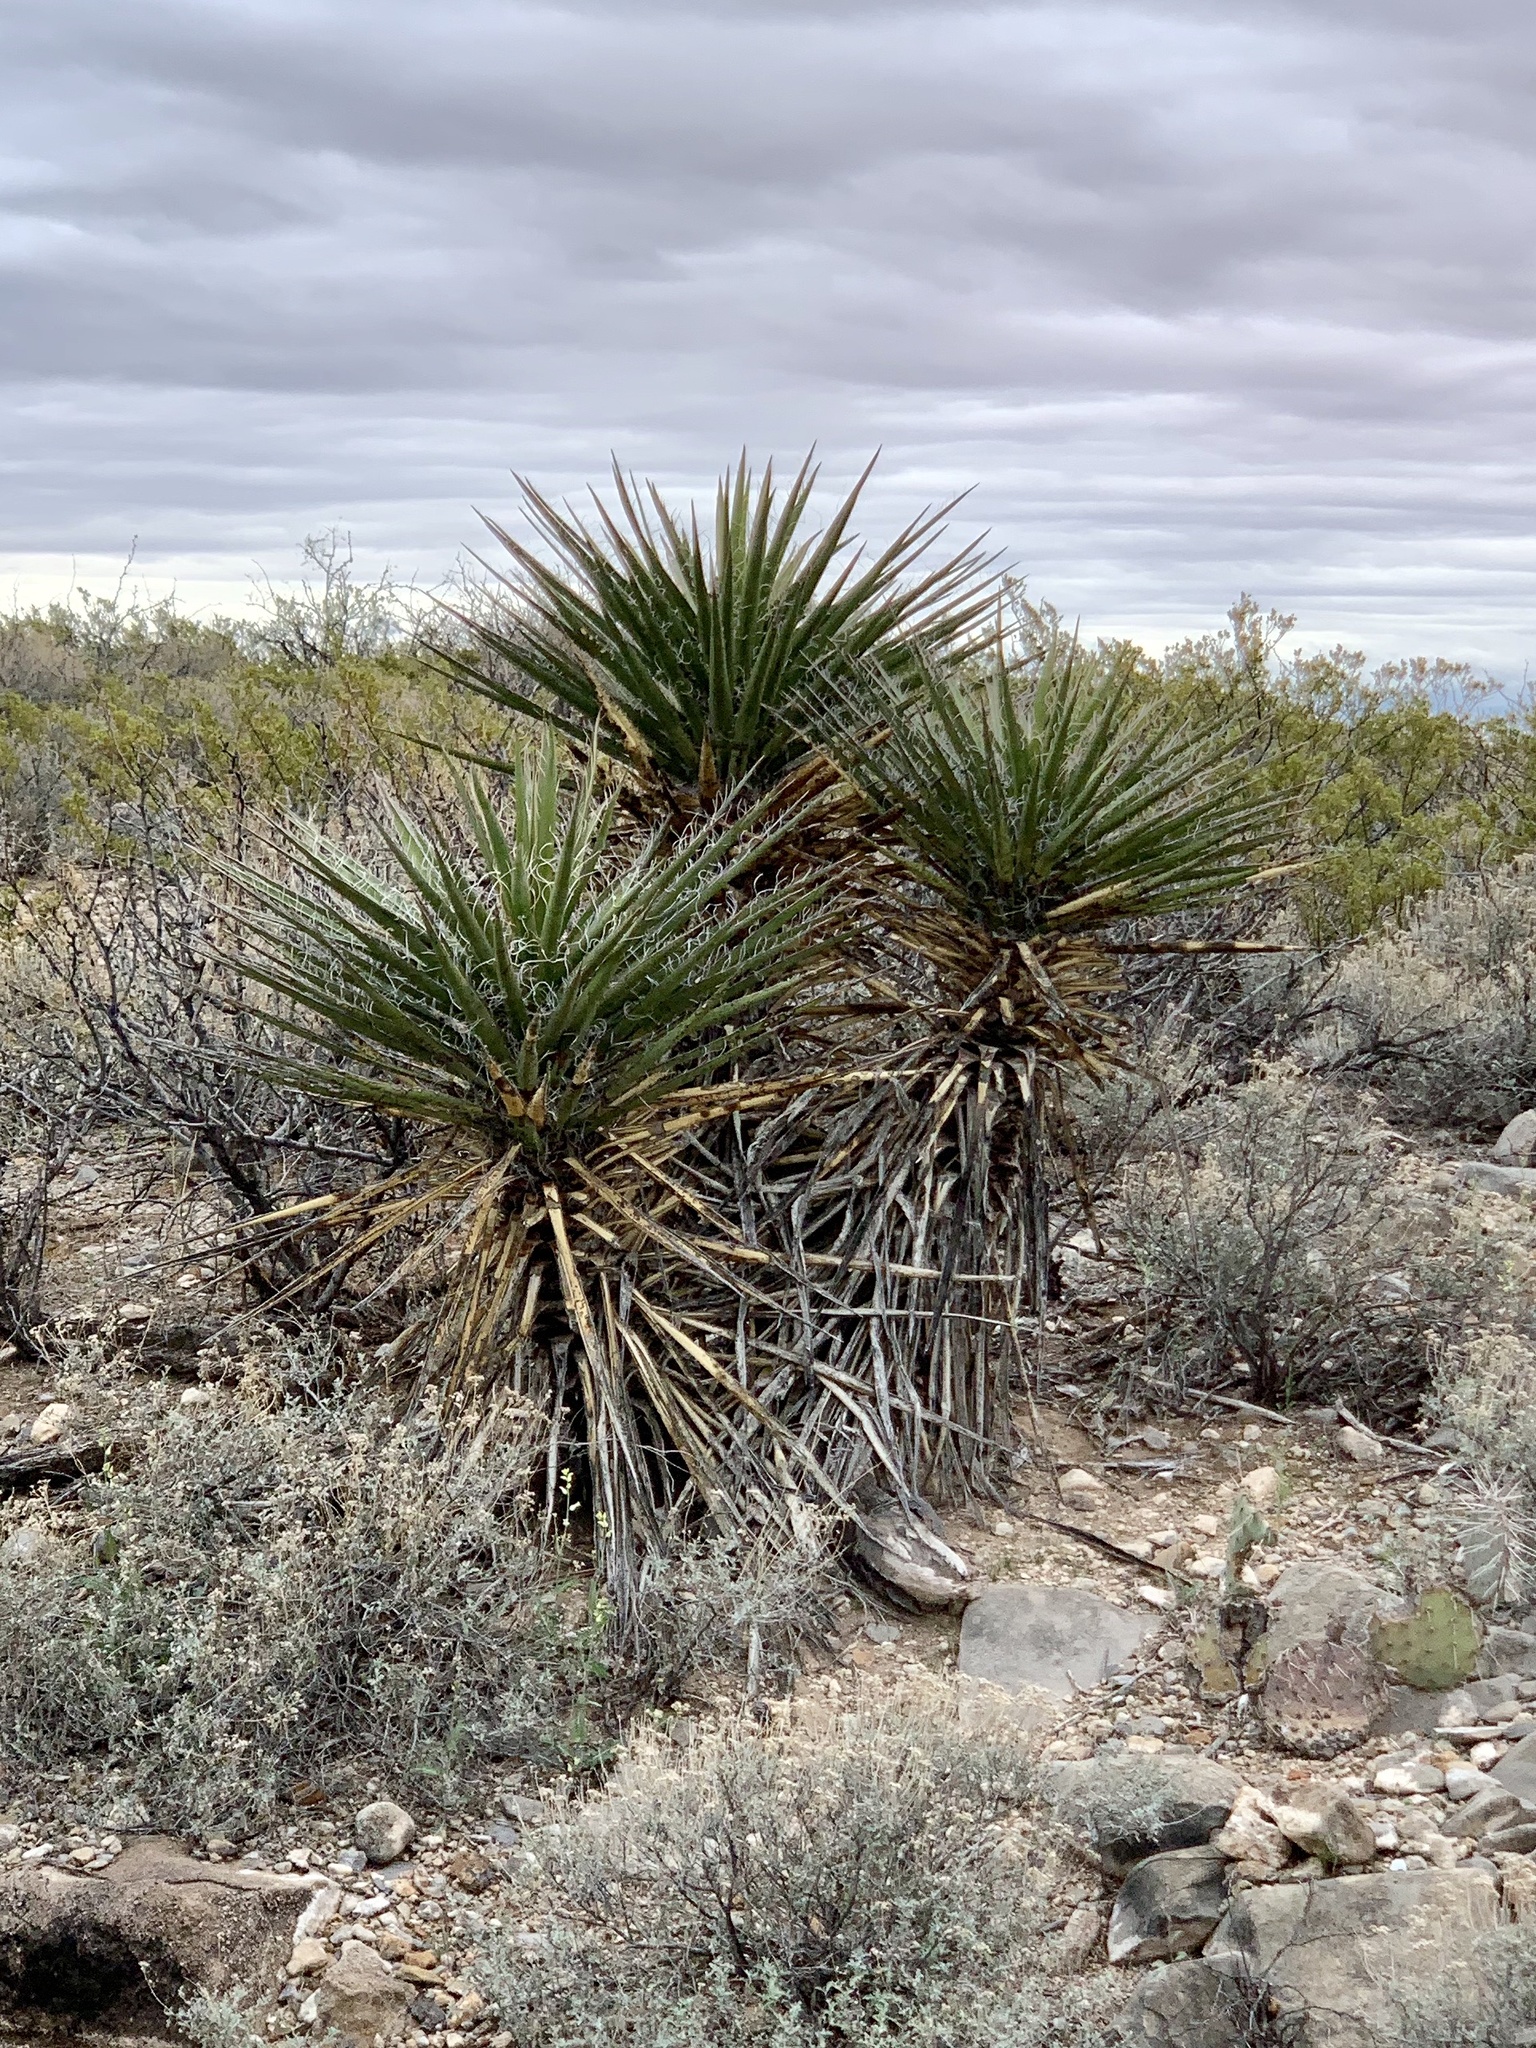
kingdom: Plantae
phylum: Tracheophyta
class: Liliopsida
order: Asparagales
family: Asparagaceae
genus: Yucca
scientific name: Yucca treculiana
